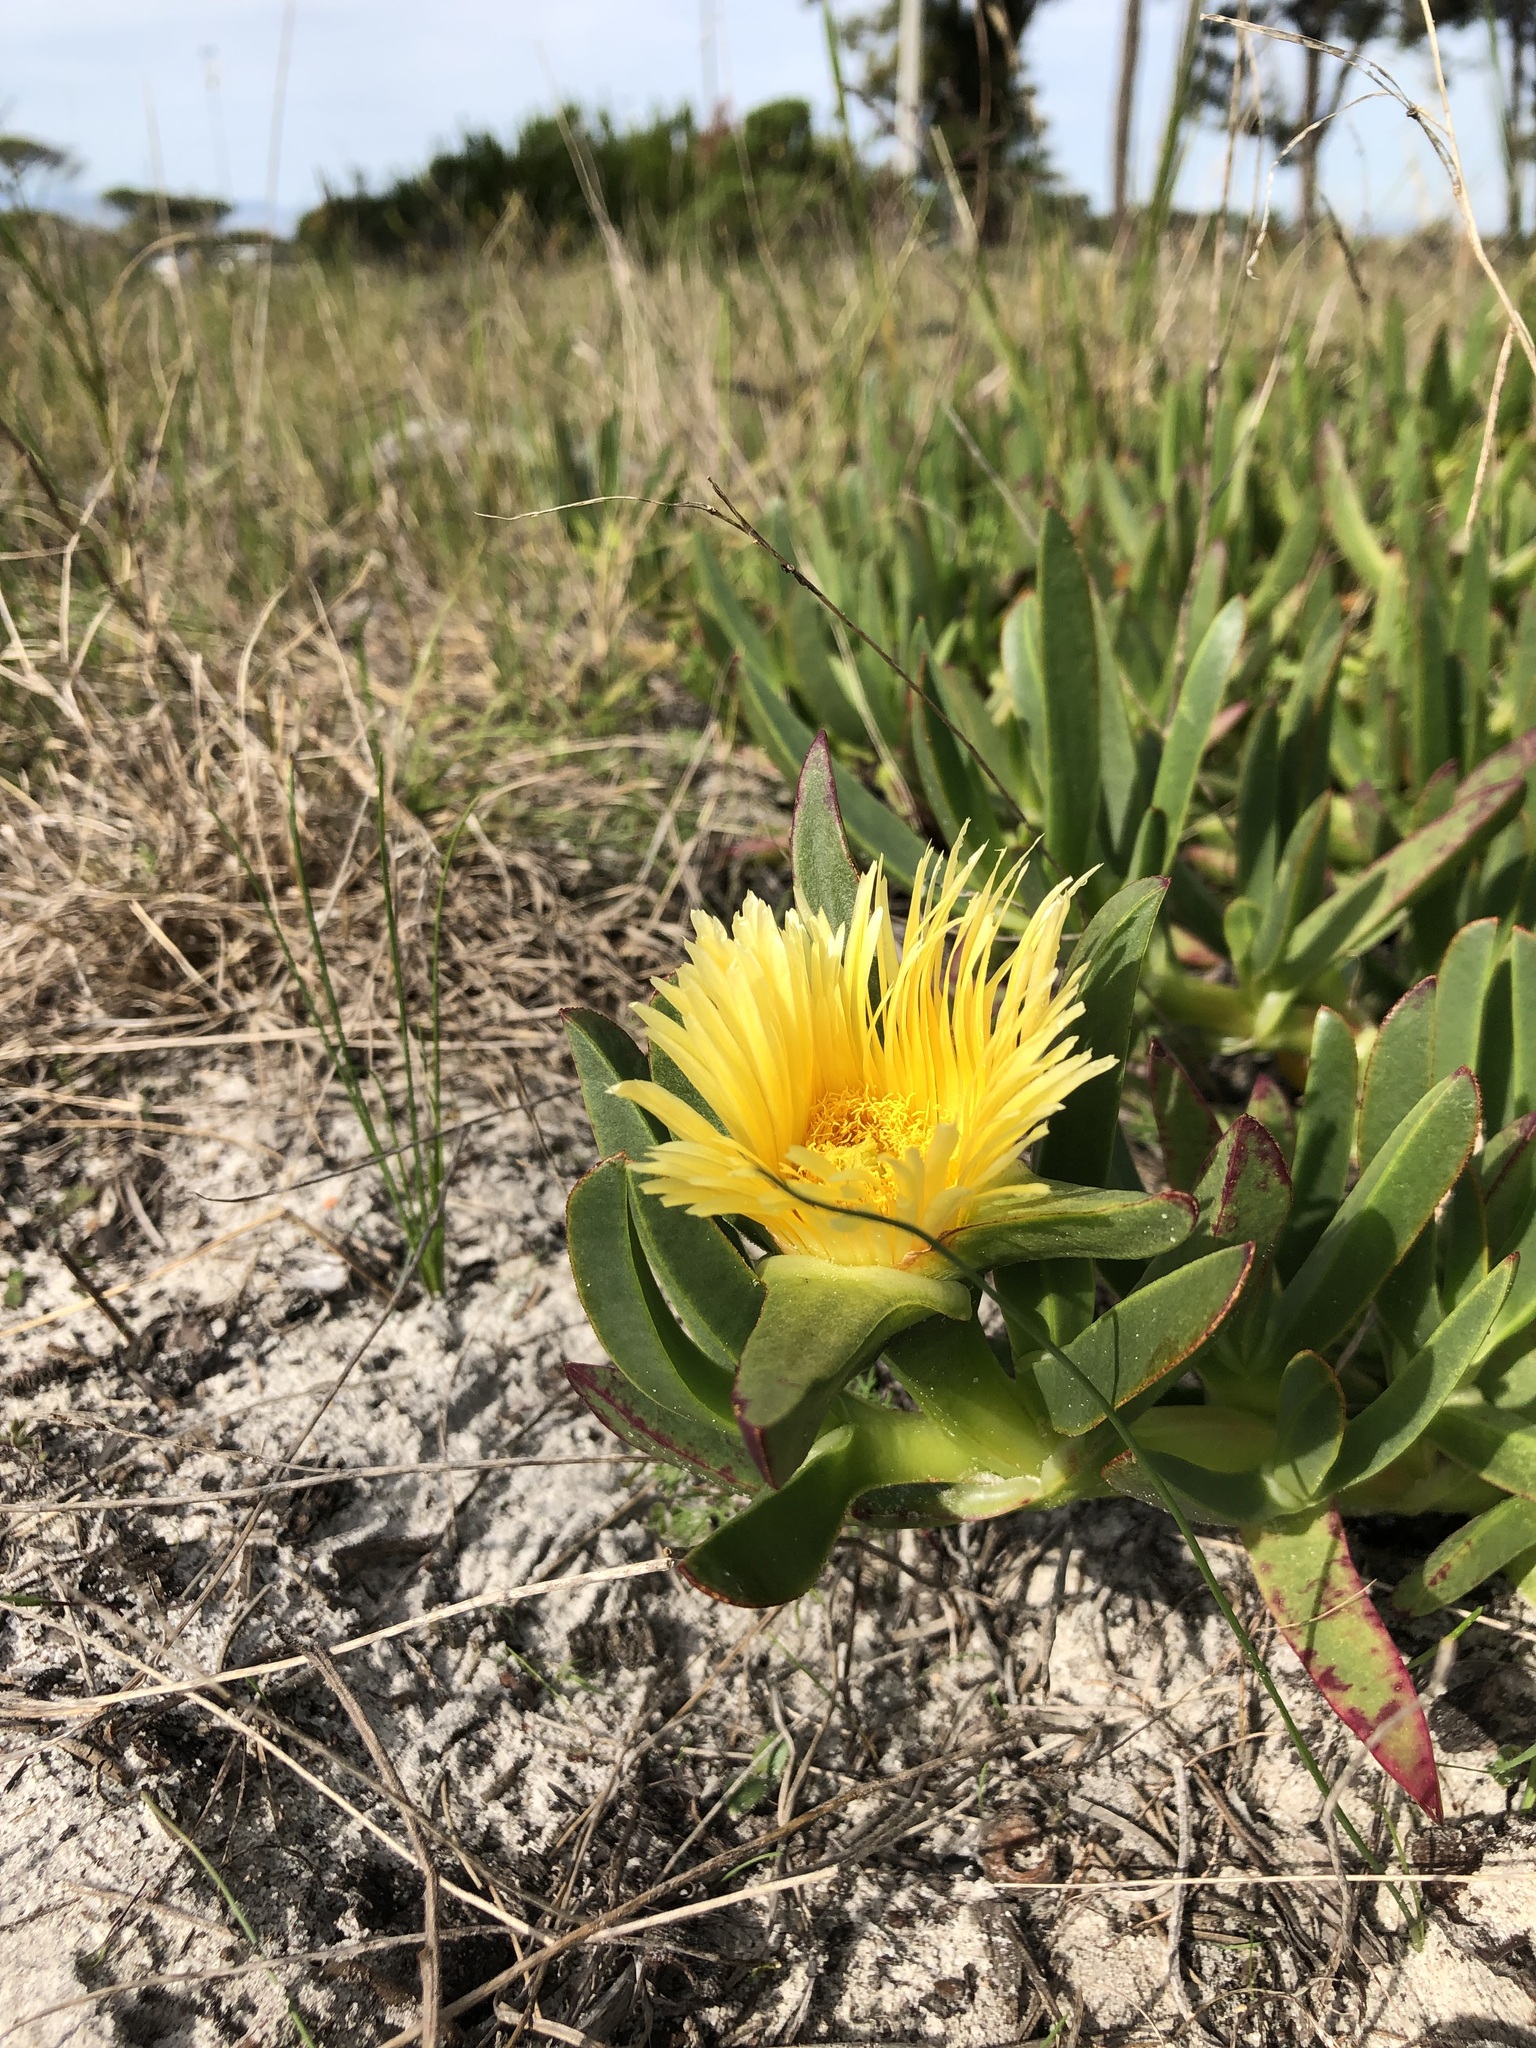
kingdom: Plantae
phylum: Tracheophyta
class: Magnoliopsida
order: Caryophyllales
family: Aizoaceae
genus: Carpobrotus
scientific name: Carpobrotus edulis
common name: Hottentot-fig
